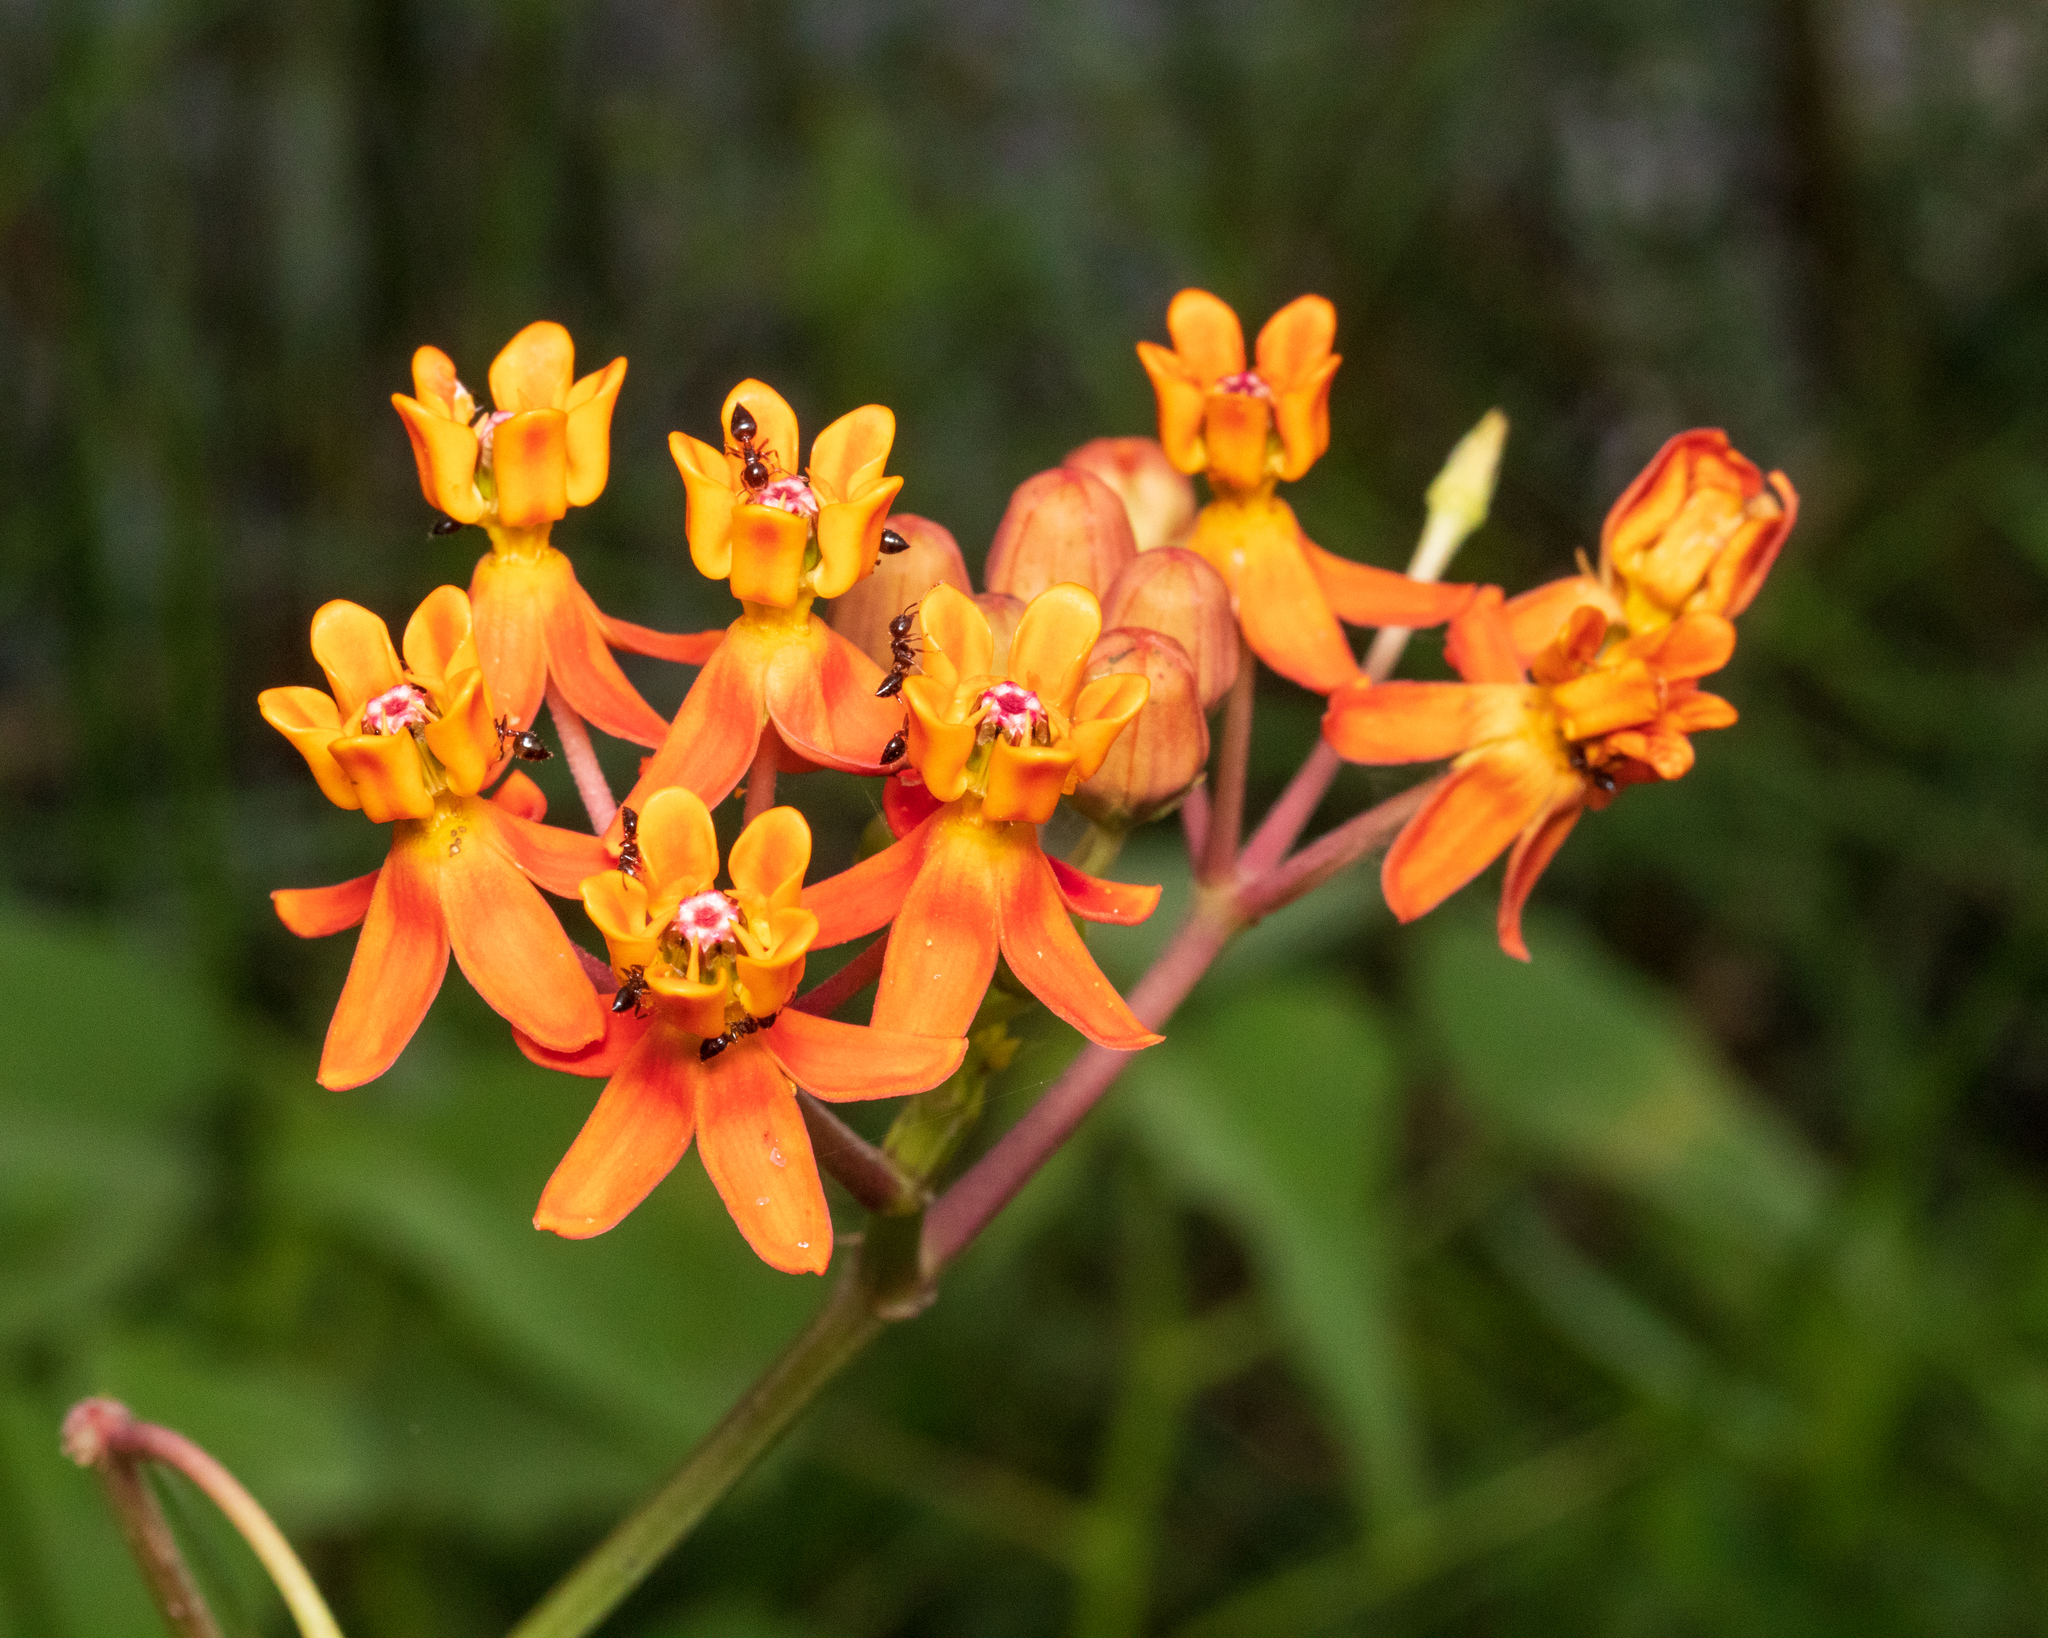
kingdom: Plantae
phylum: Tracheophyta
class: Magnoliopsida
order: Gentianales
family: Apocynaceae
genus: Asclepias
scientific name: Asclepias lanceolata
